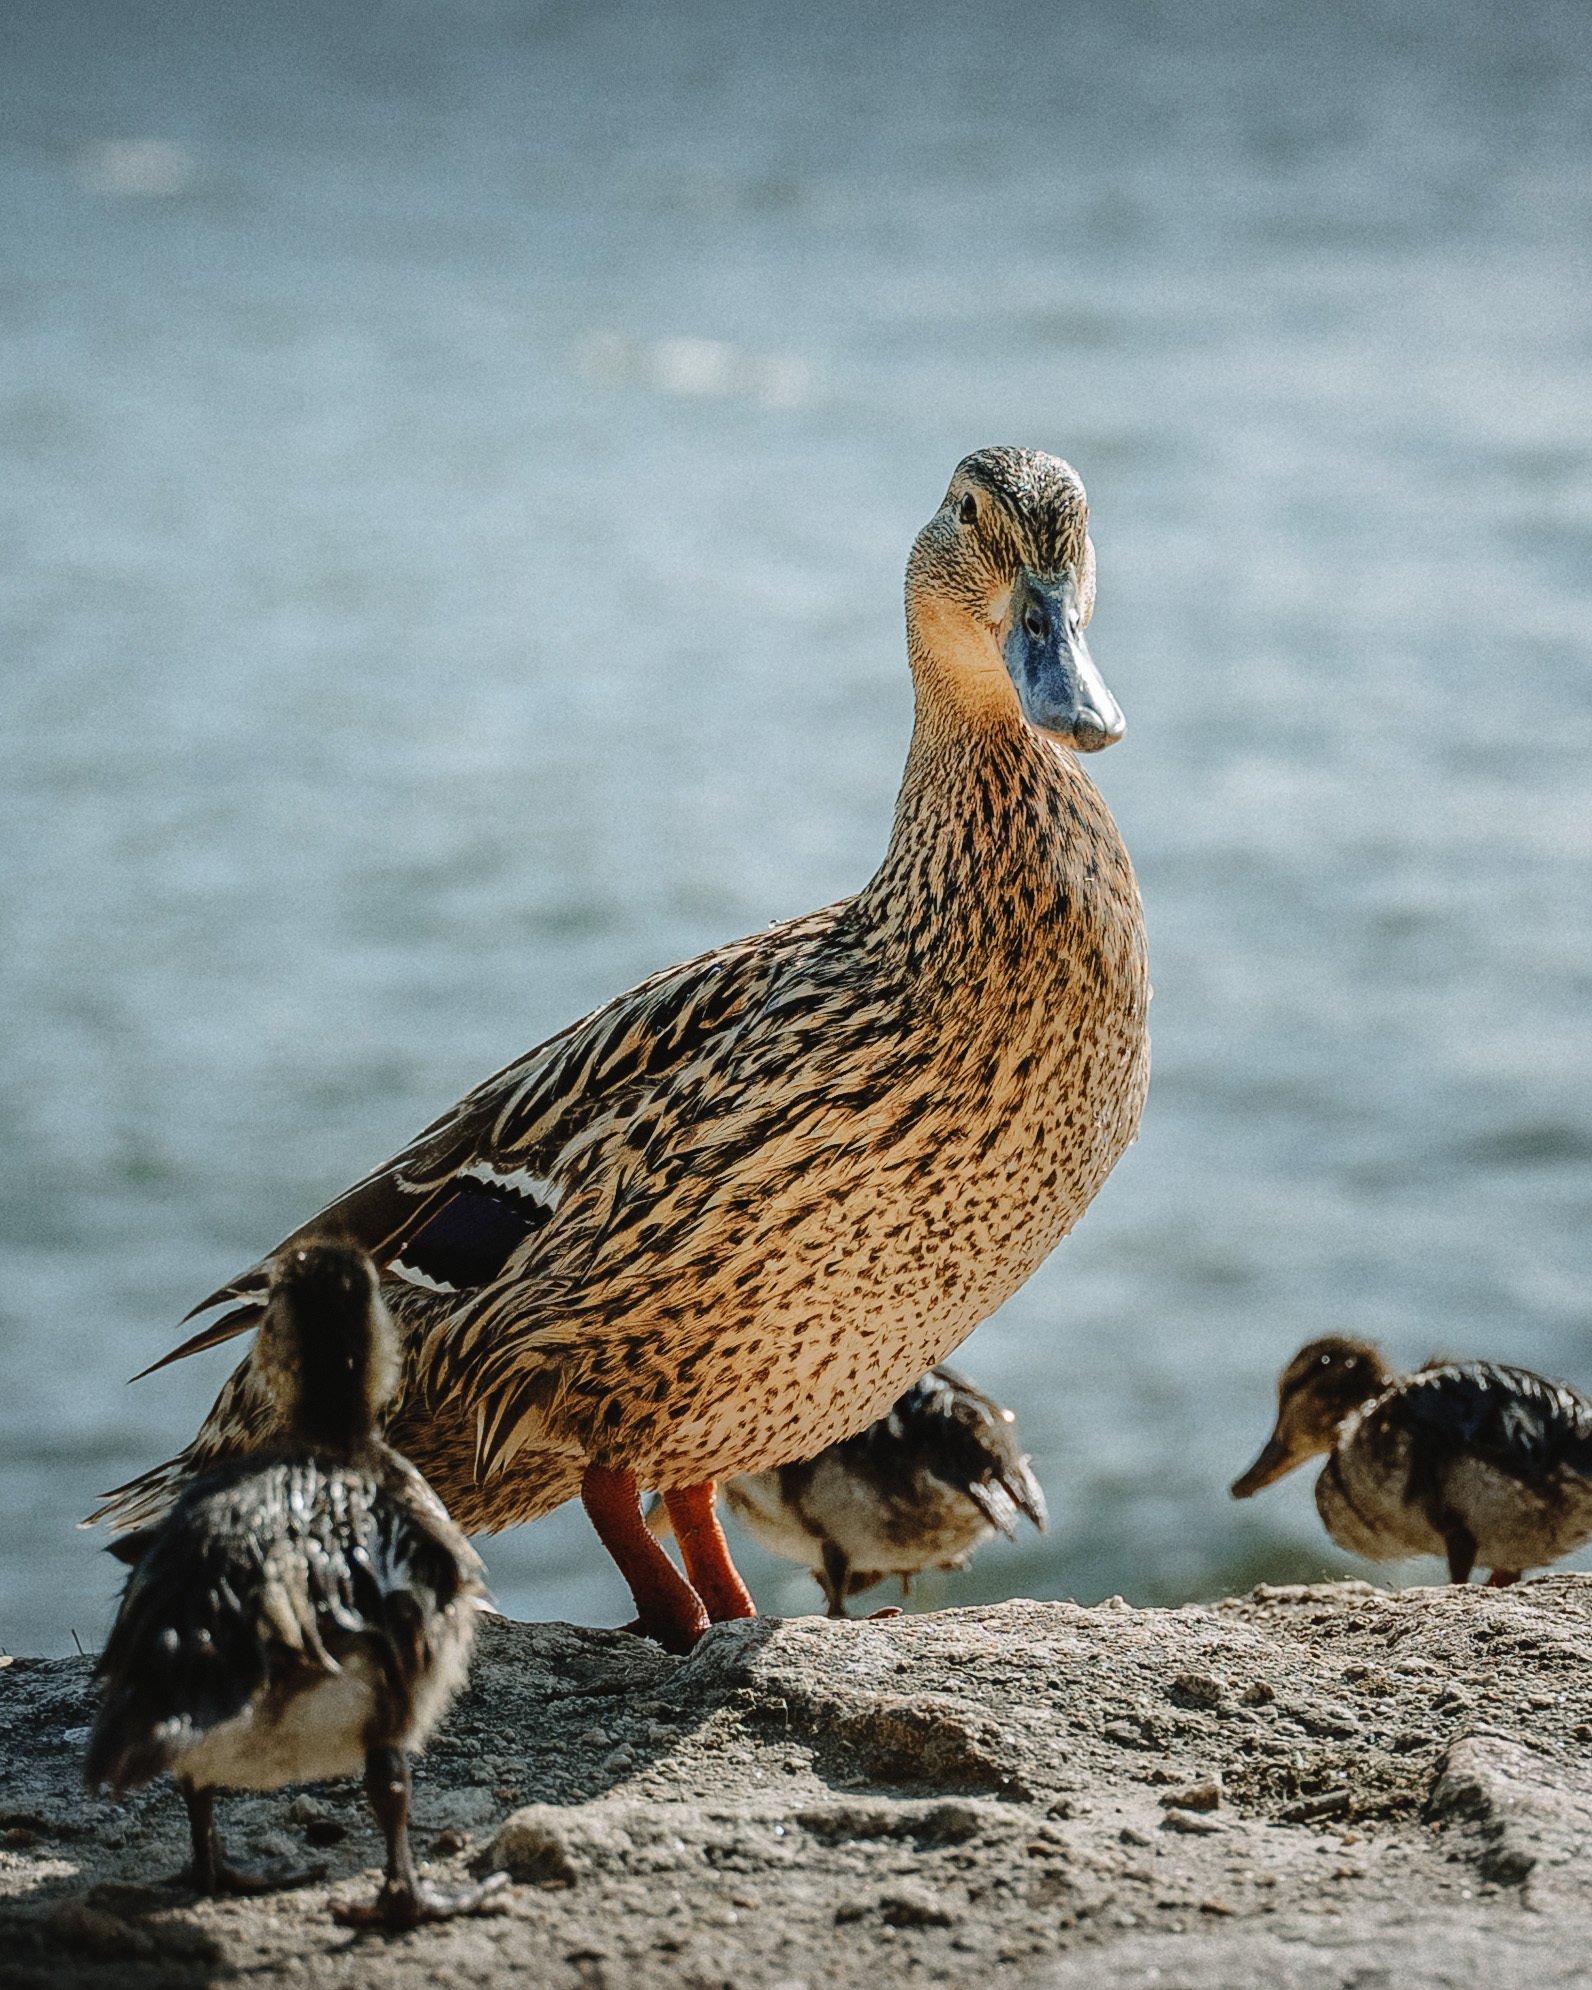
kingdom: Animalia
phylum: Chordata
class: Aves
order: Anseriformes
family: Anatidae
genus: Anas
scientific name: Anas platyrhynchos
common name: Mallard
